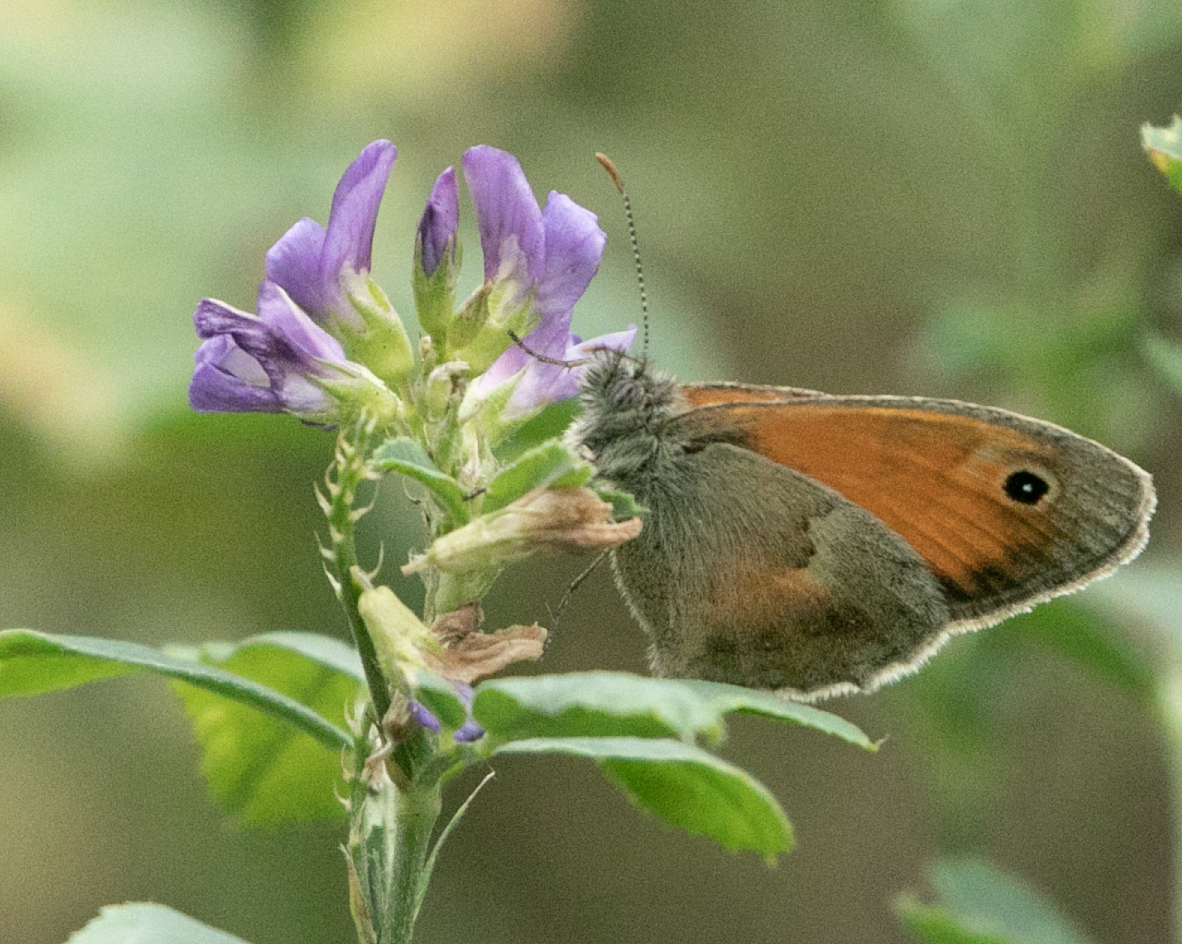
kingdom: Animalia
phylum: Arthropoda
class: Insecta
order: Lepidoptera
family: Nymphalidae
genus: Coenonympha
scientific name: Coenonympha pamphilus
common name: Small heath
